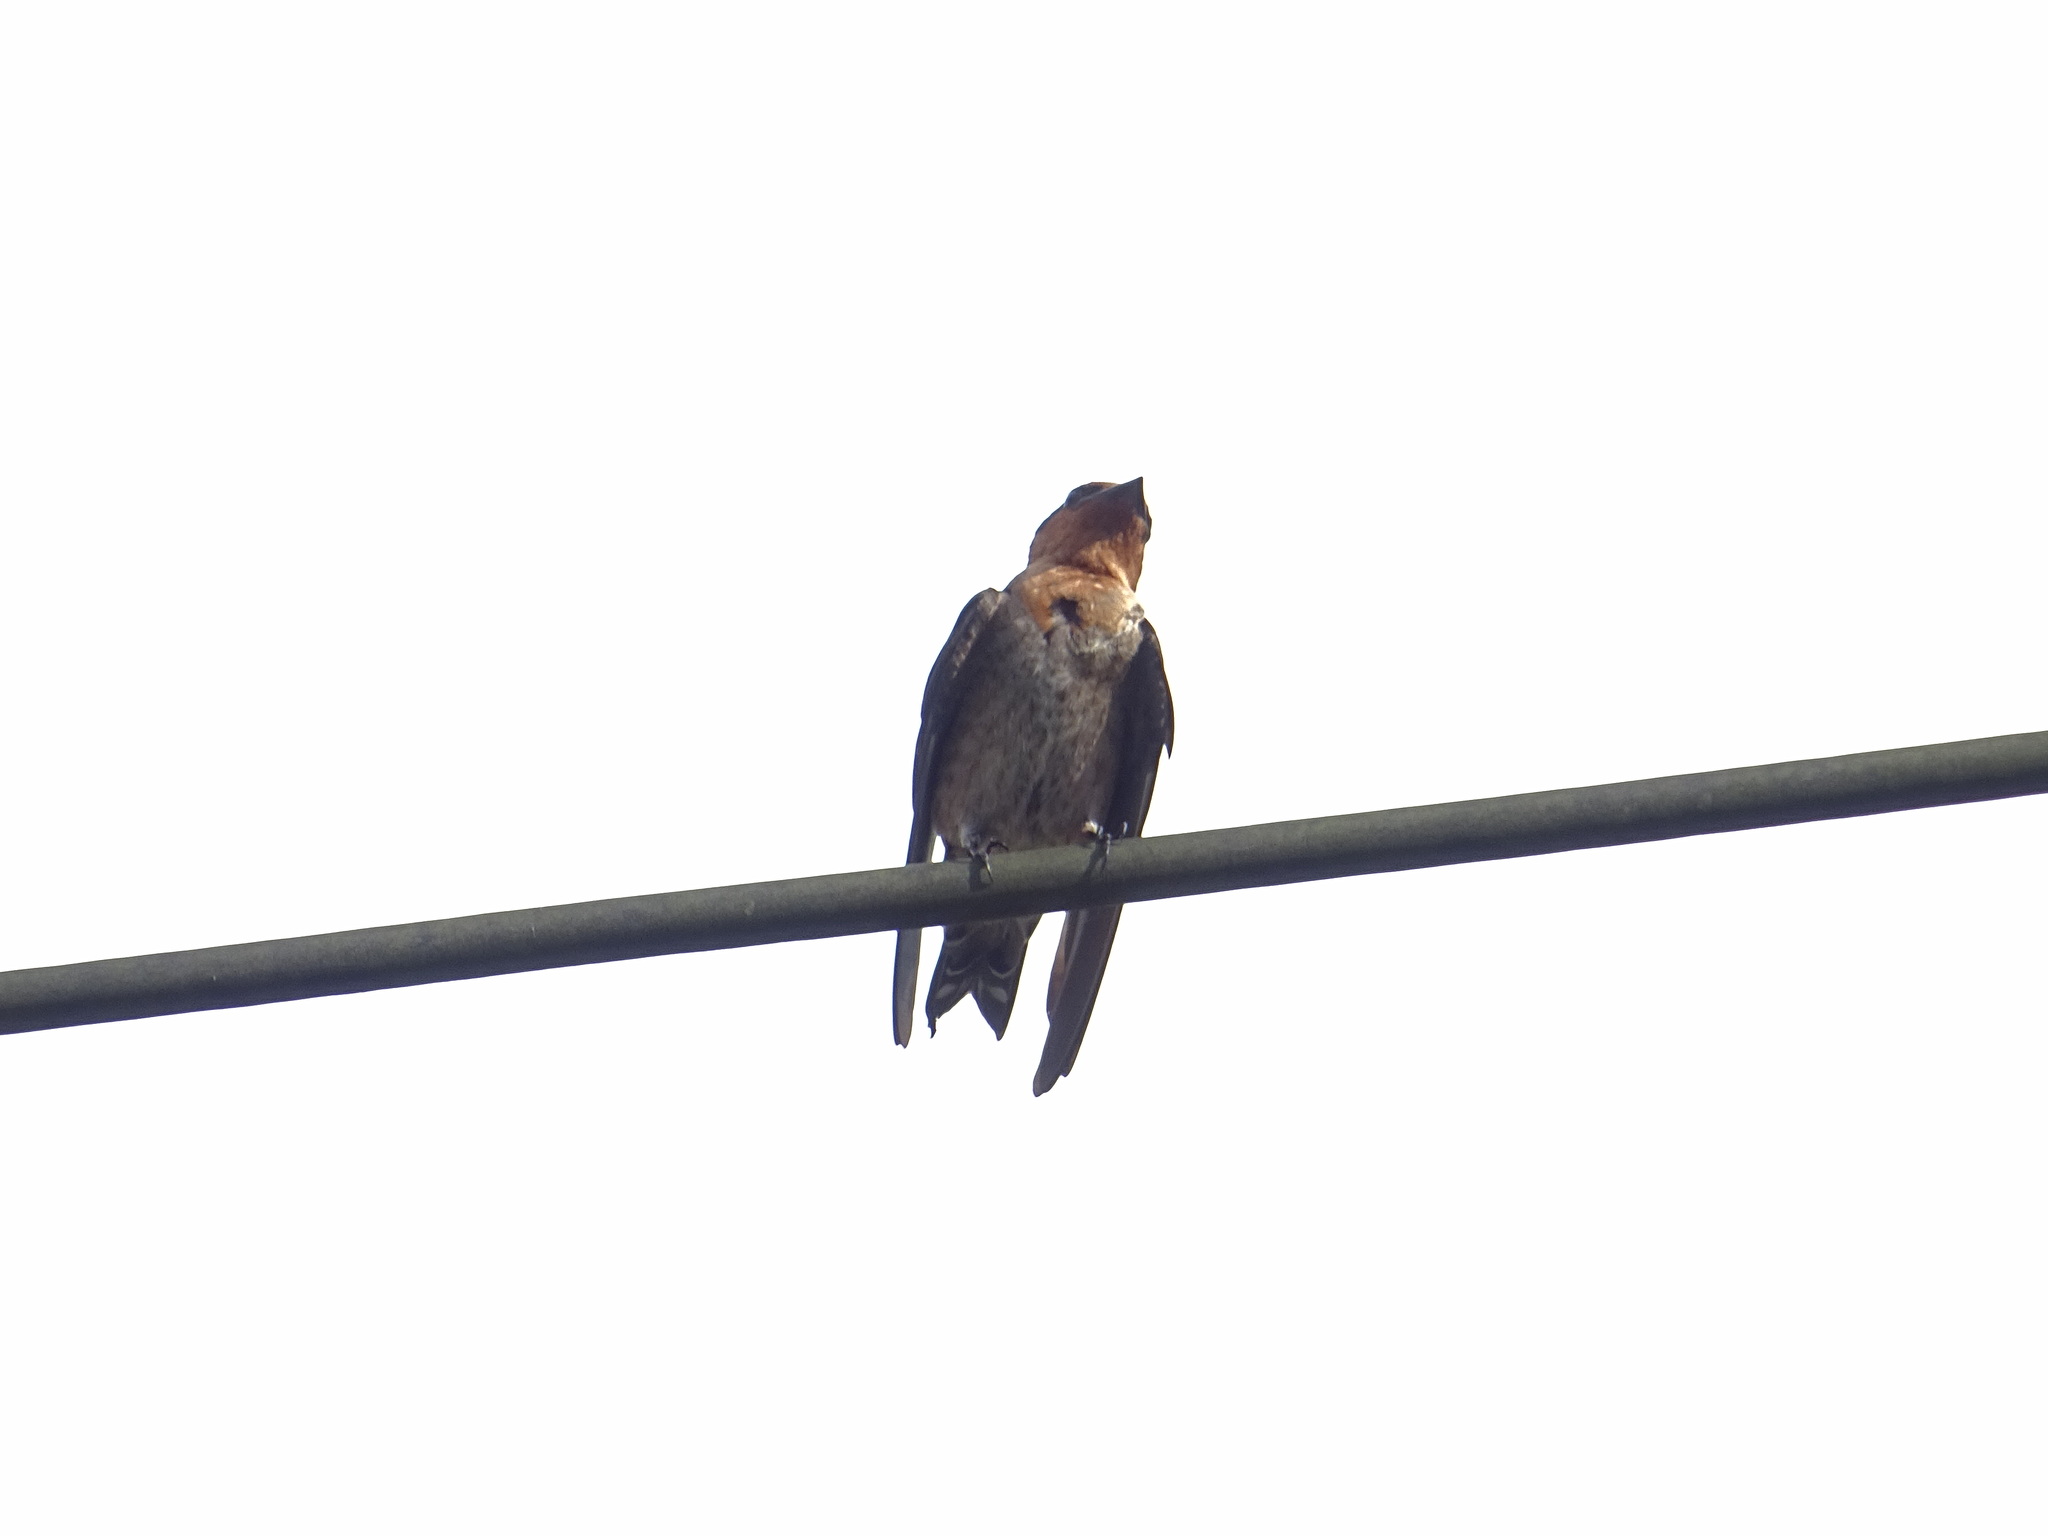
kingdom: Animalia
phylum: Chordata
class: Aves
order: Passeriformes
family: Hirundinidae
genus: Hirundo
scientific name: Hirundo tahitica
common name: Pacific swallow
